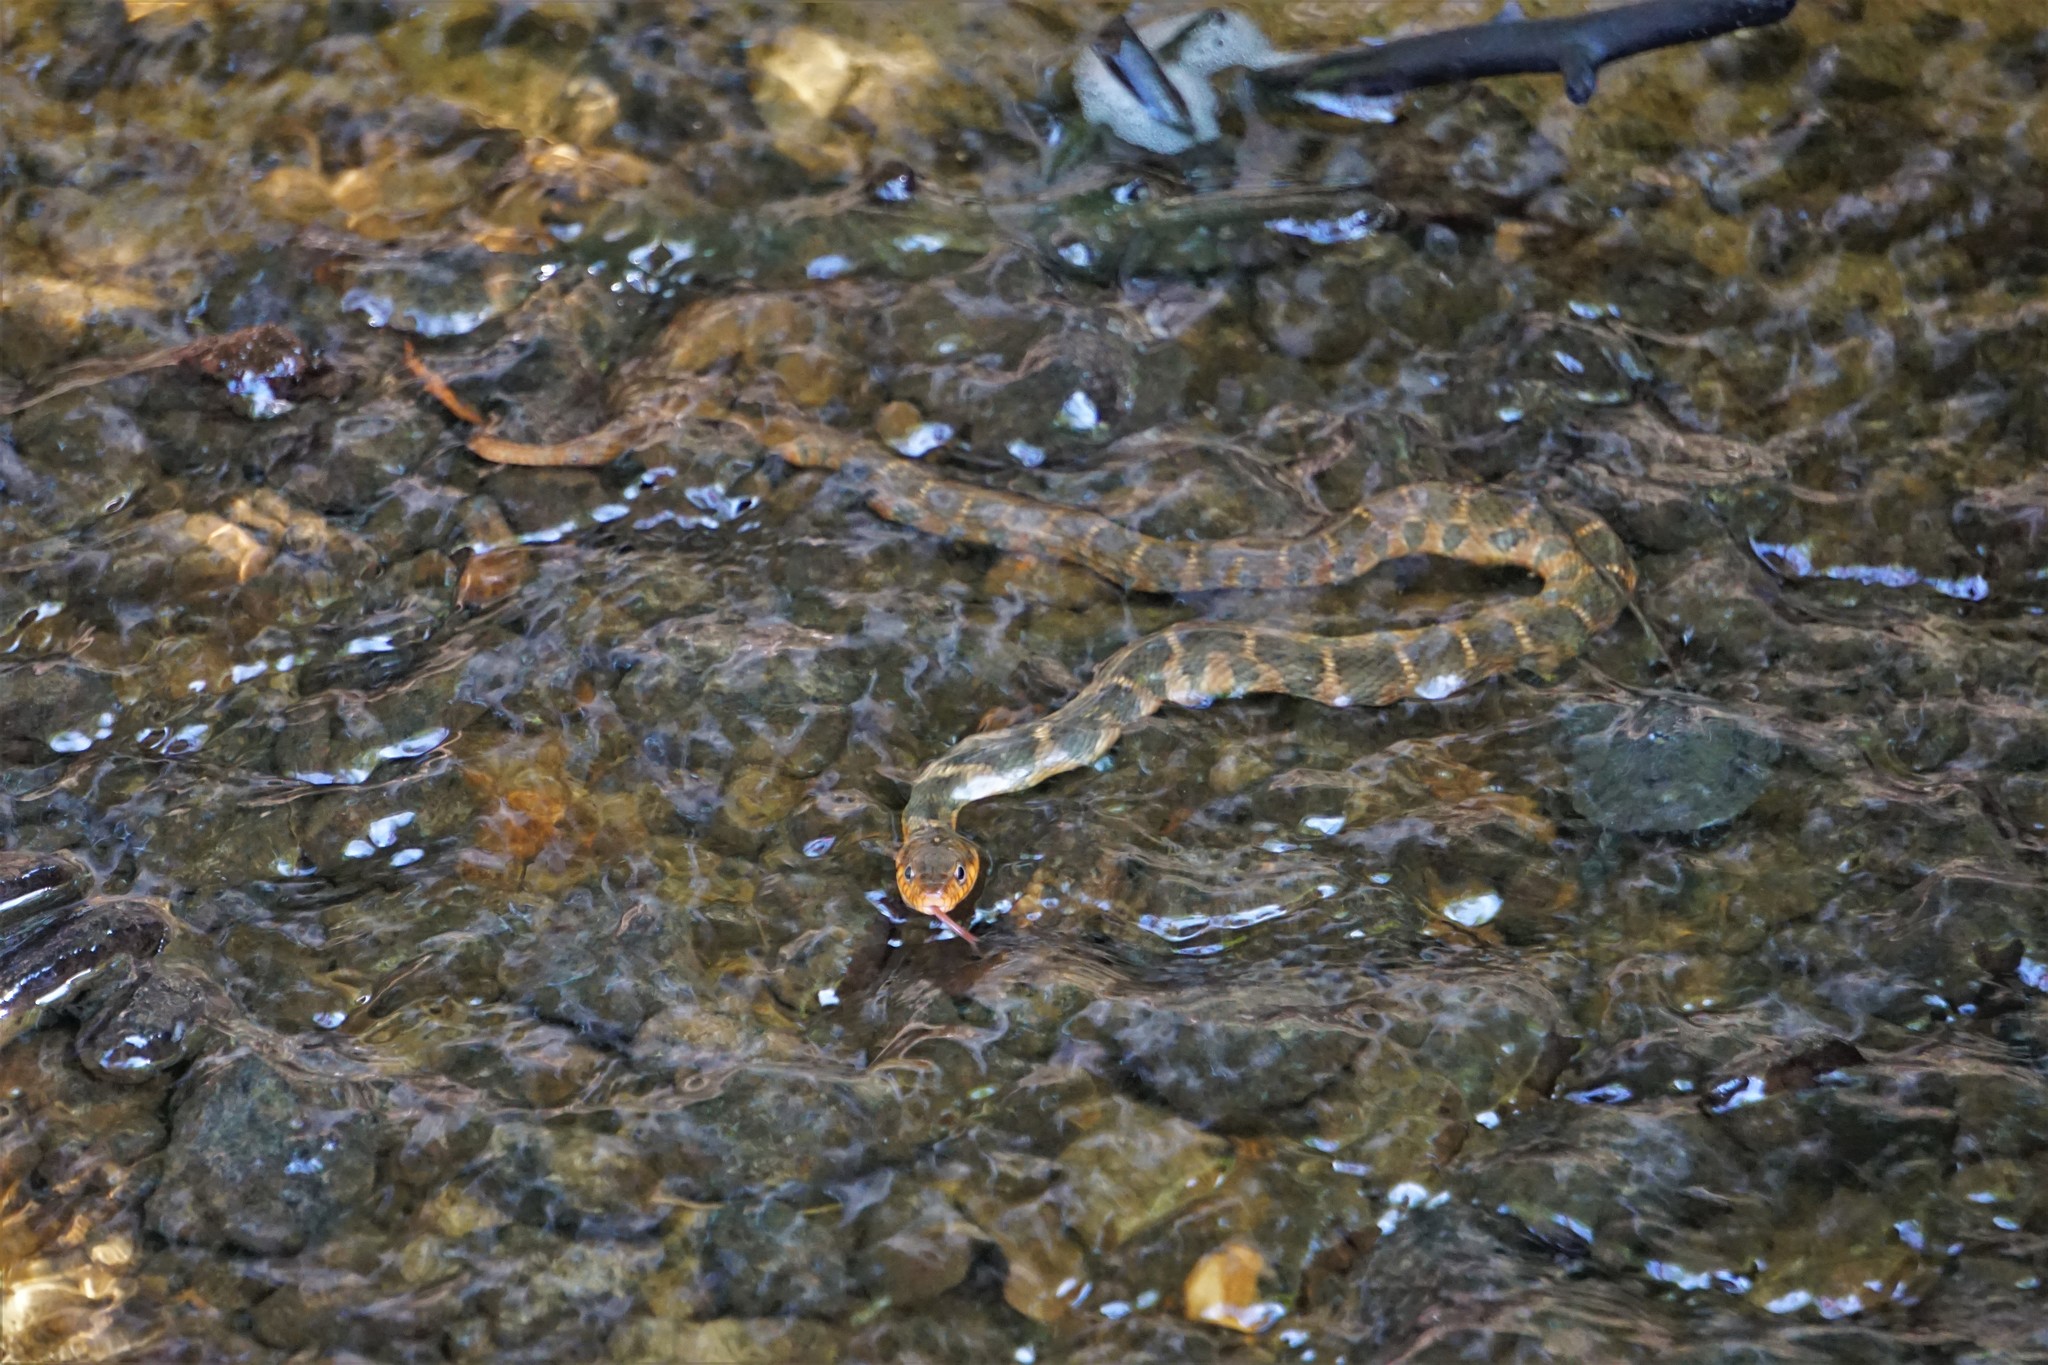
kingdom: Animalia
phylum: Chordata
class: Squamata
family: Colubridae
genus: Nerodia
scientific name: Nerodia erythrogaster
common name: Plainbelly water snake
